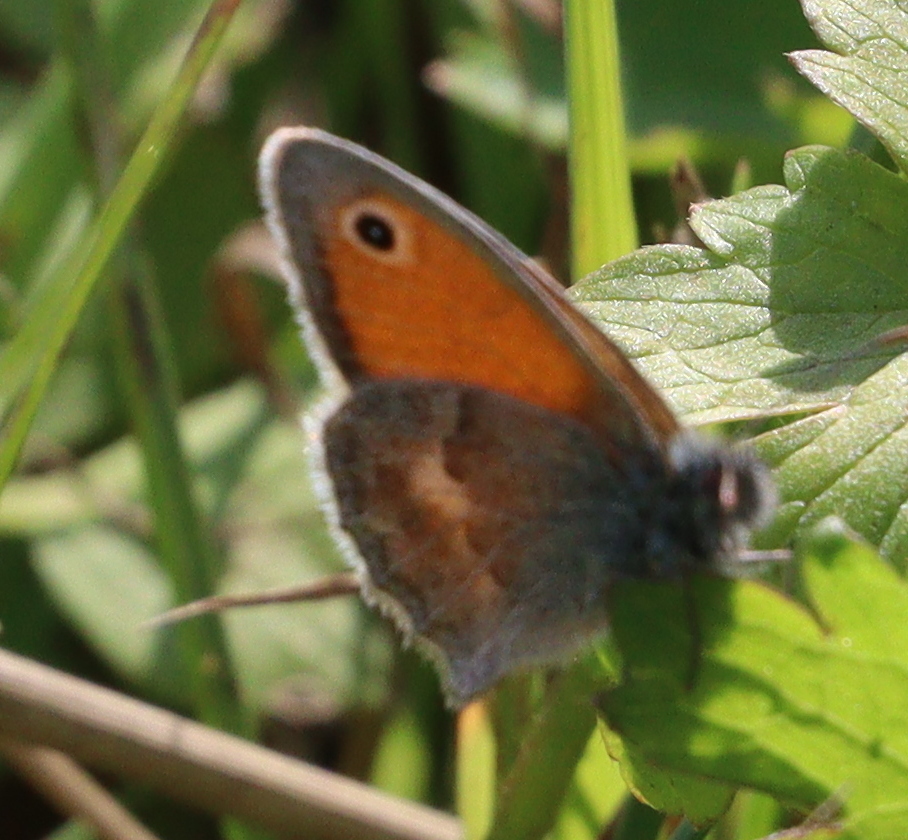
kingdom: Animalia
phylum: Arthropoda
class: Insecta
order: Lepidoptera
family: Nymphalidae
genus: Coenonympha
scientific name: Coenonympha pamphilus
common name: Small heath
